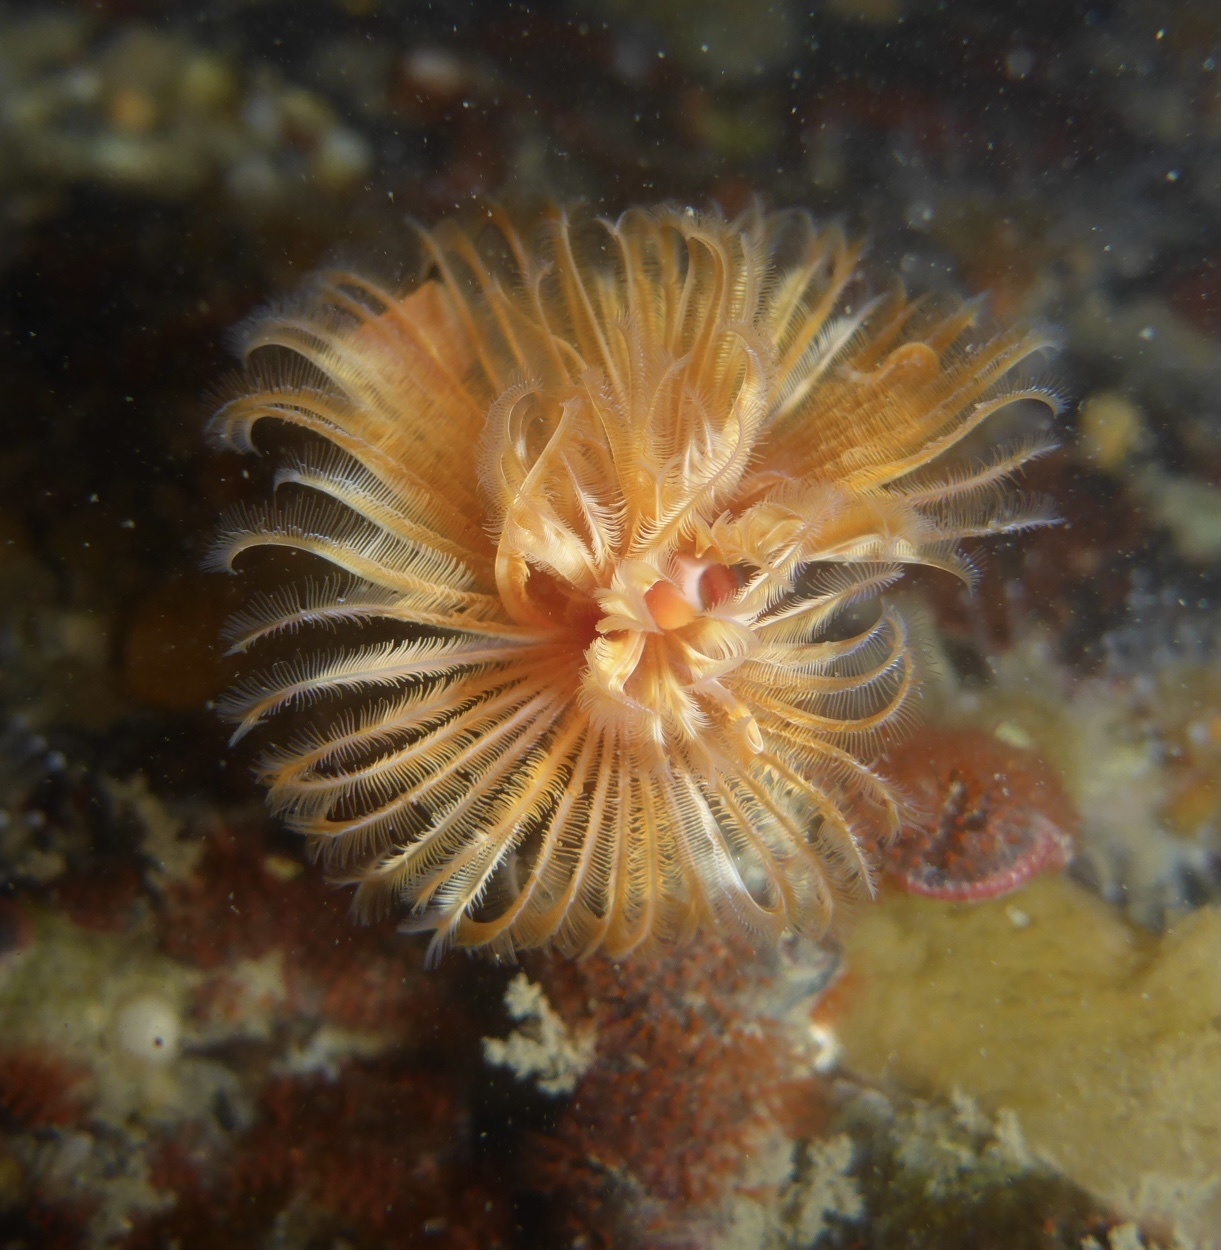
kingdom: Animalia
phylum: Annelida
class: Polychaeta
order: Sabellida
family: Serpulidae
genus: Serpula
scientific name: Serpula columbiana
